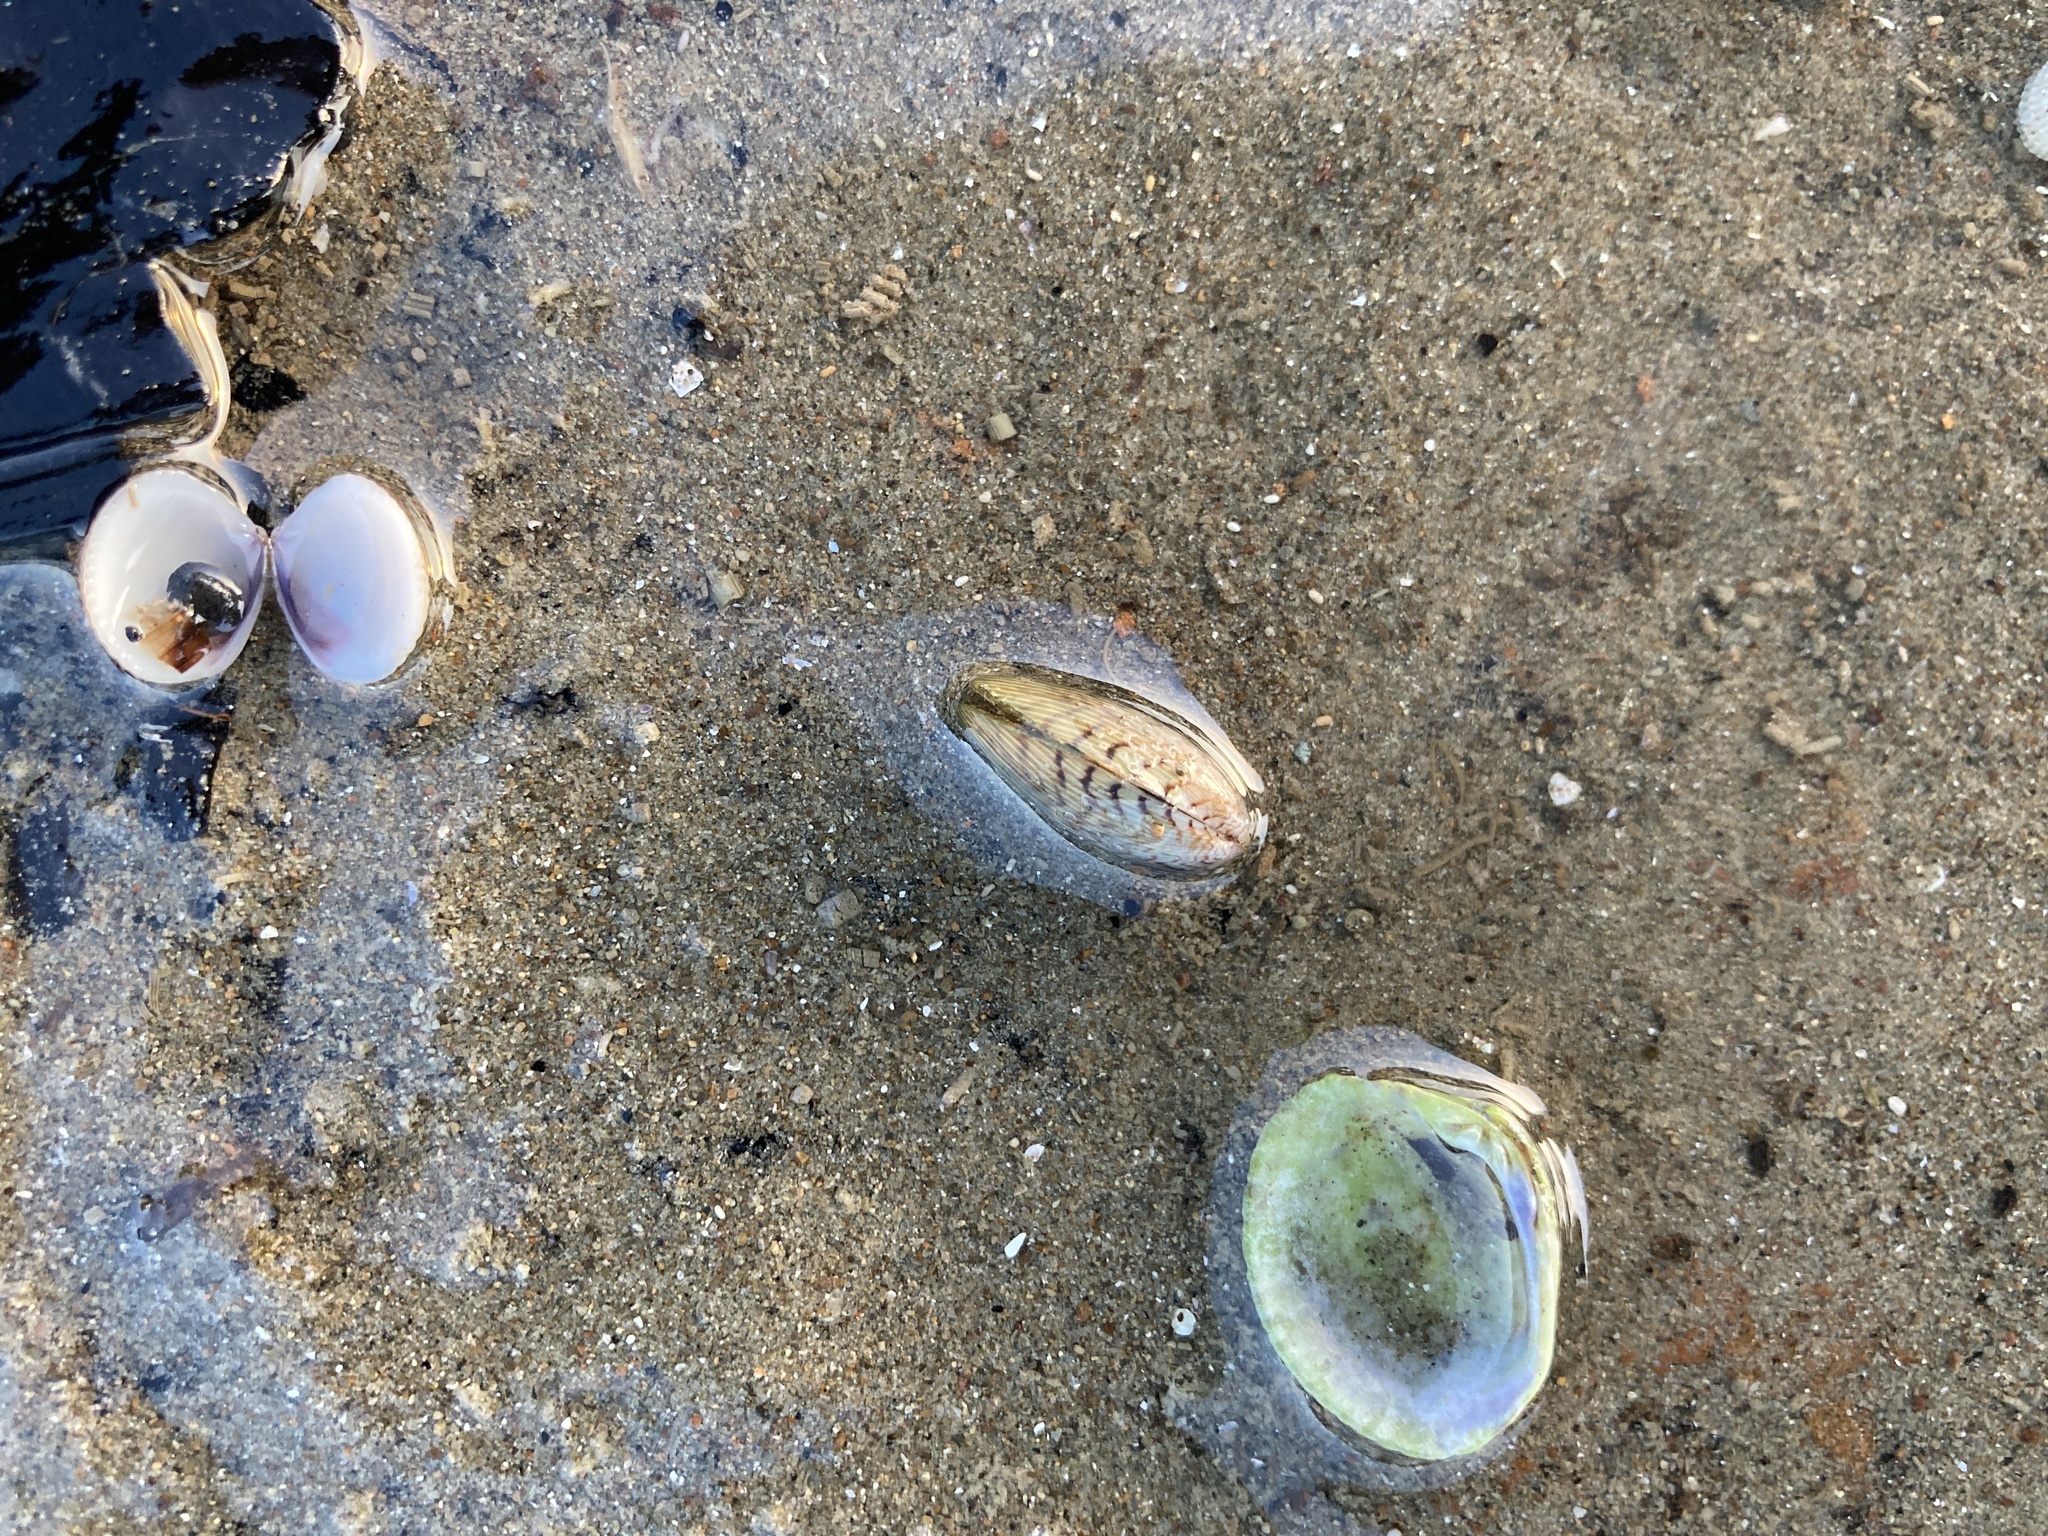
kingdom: Animalia
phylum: Mollusca
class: Bivalvia
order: Mytilida
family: Mytilidae
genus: Arcuatula
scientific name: Arcuatula senhousia
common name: Asian mussel
